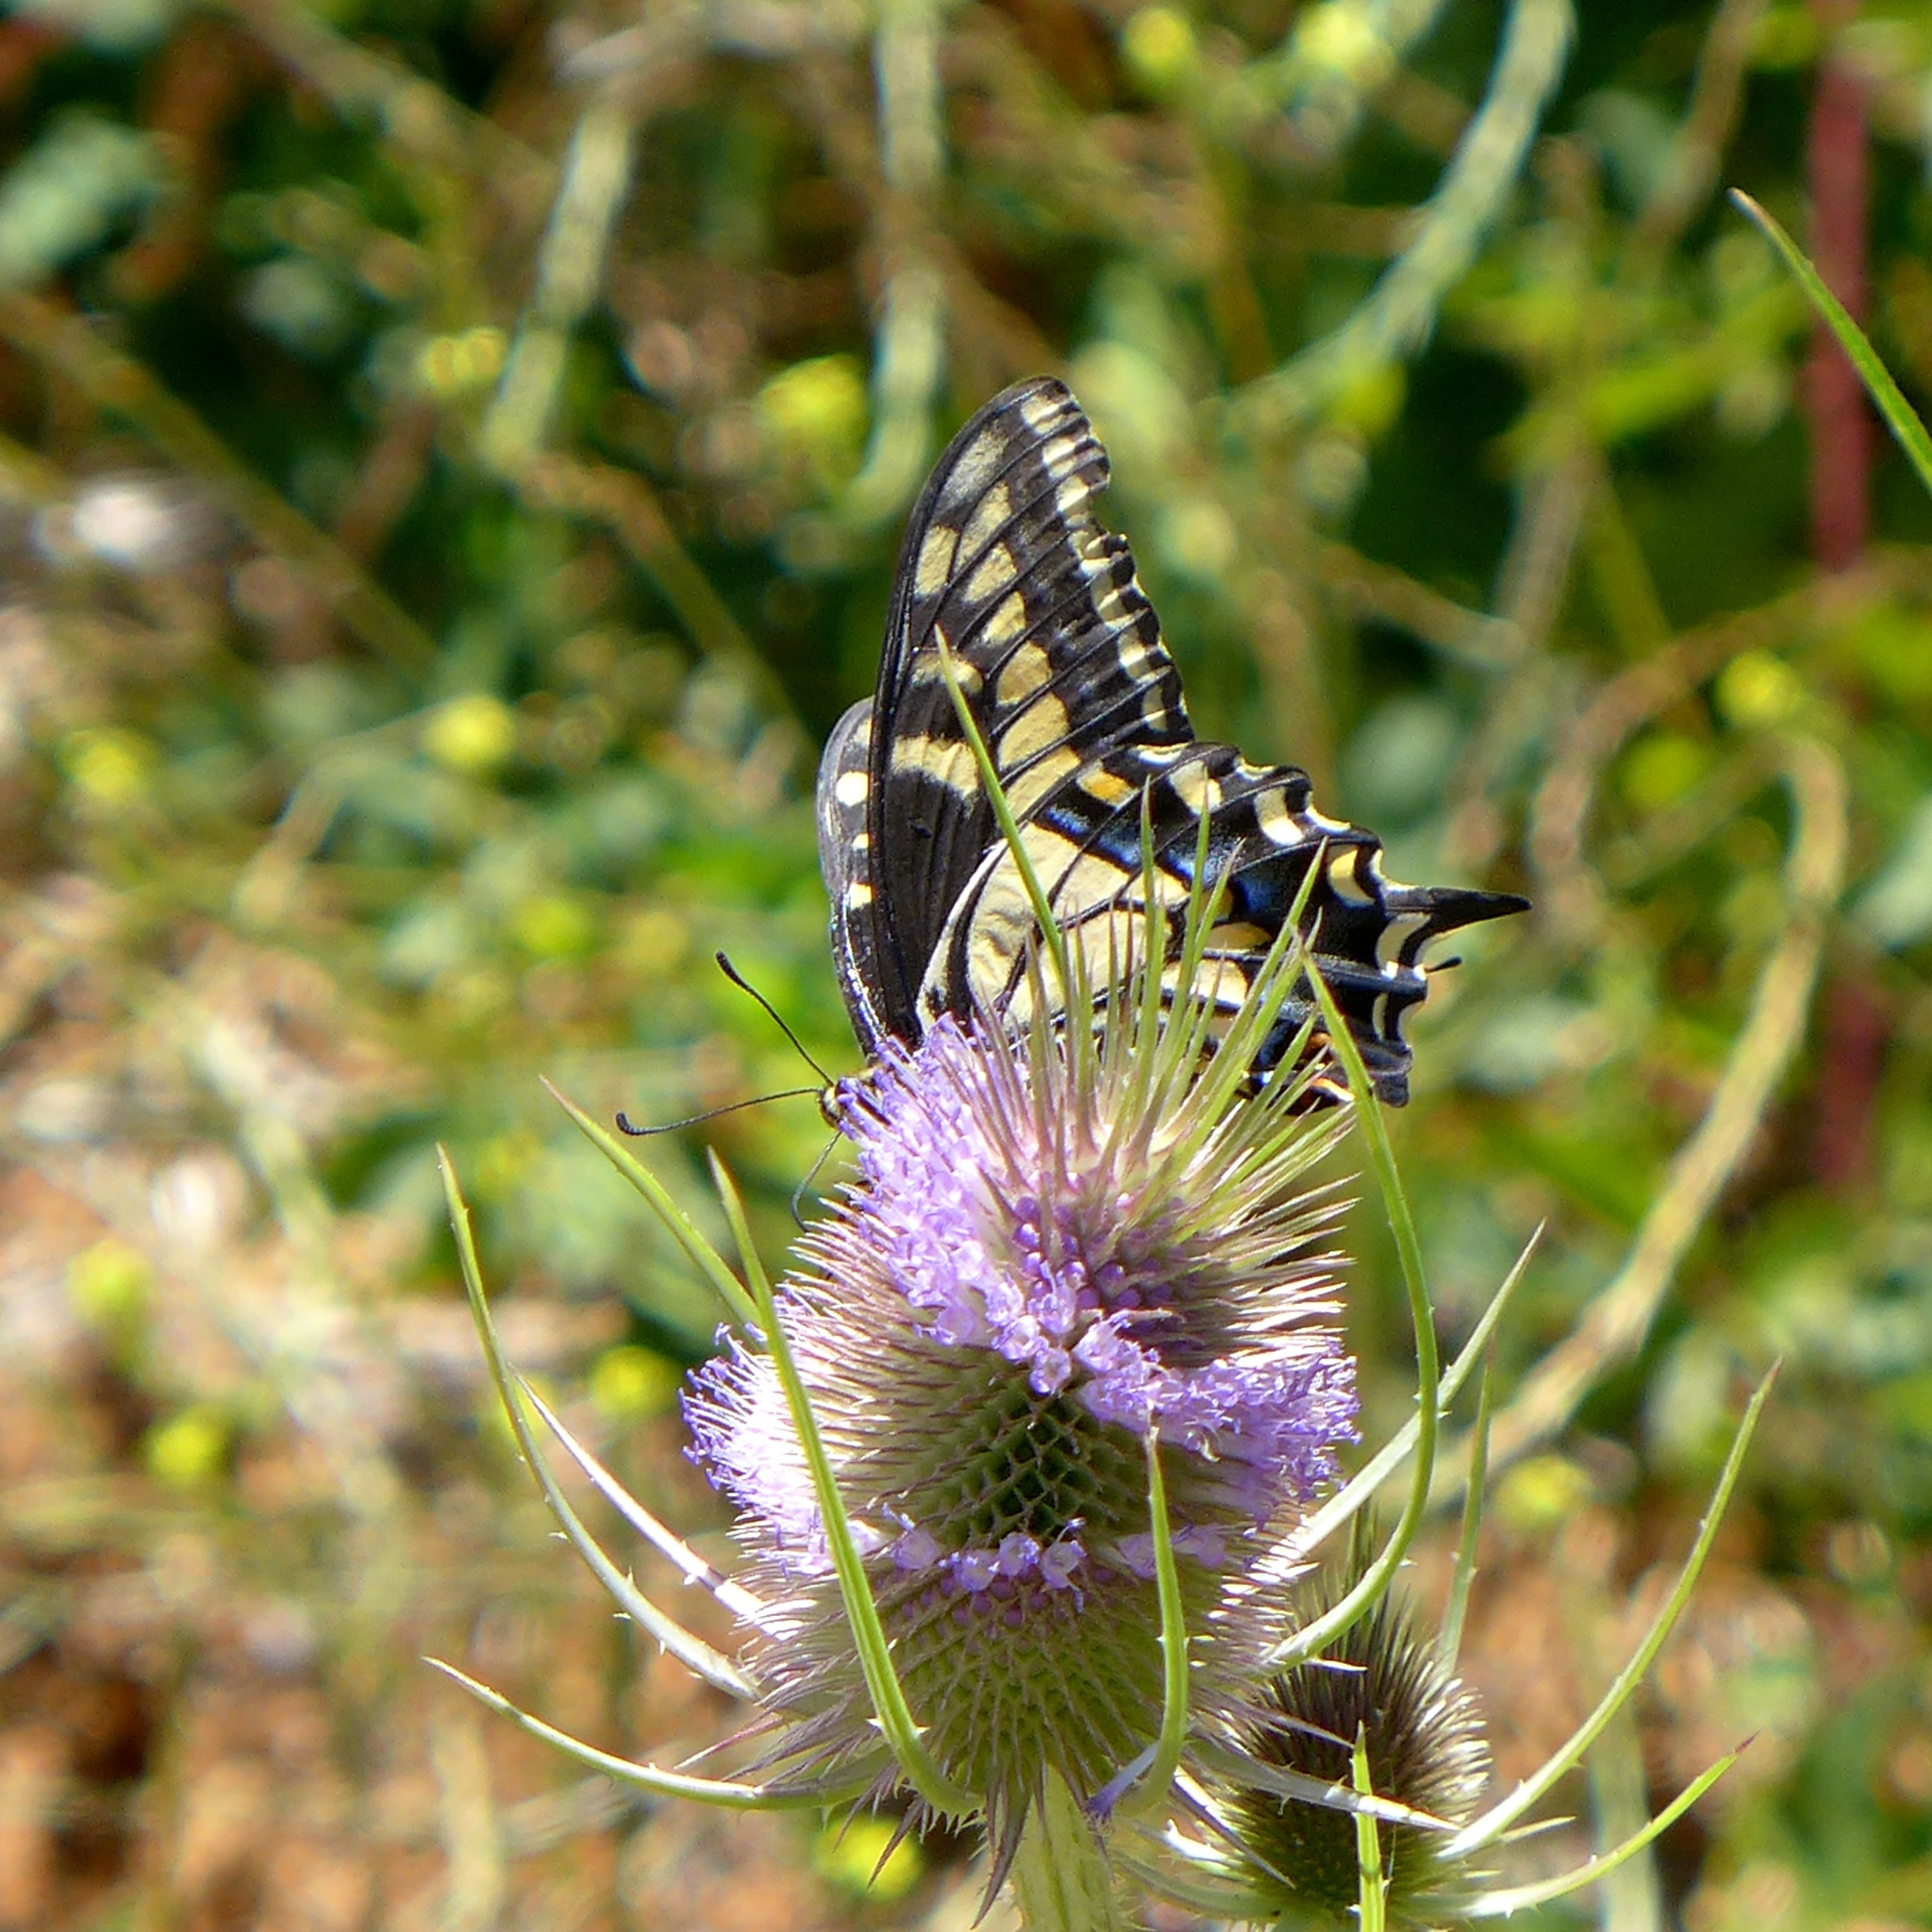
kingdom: Plantae
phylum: Tracheophyta
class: Magnoliopsida
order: Dipsacales
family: Caprifoliaceae
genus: Dipsacus
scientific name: Dipsacus fullonum
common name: Teasel
